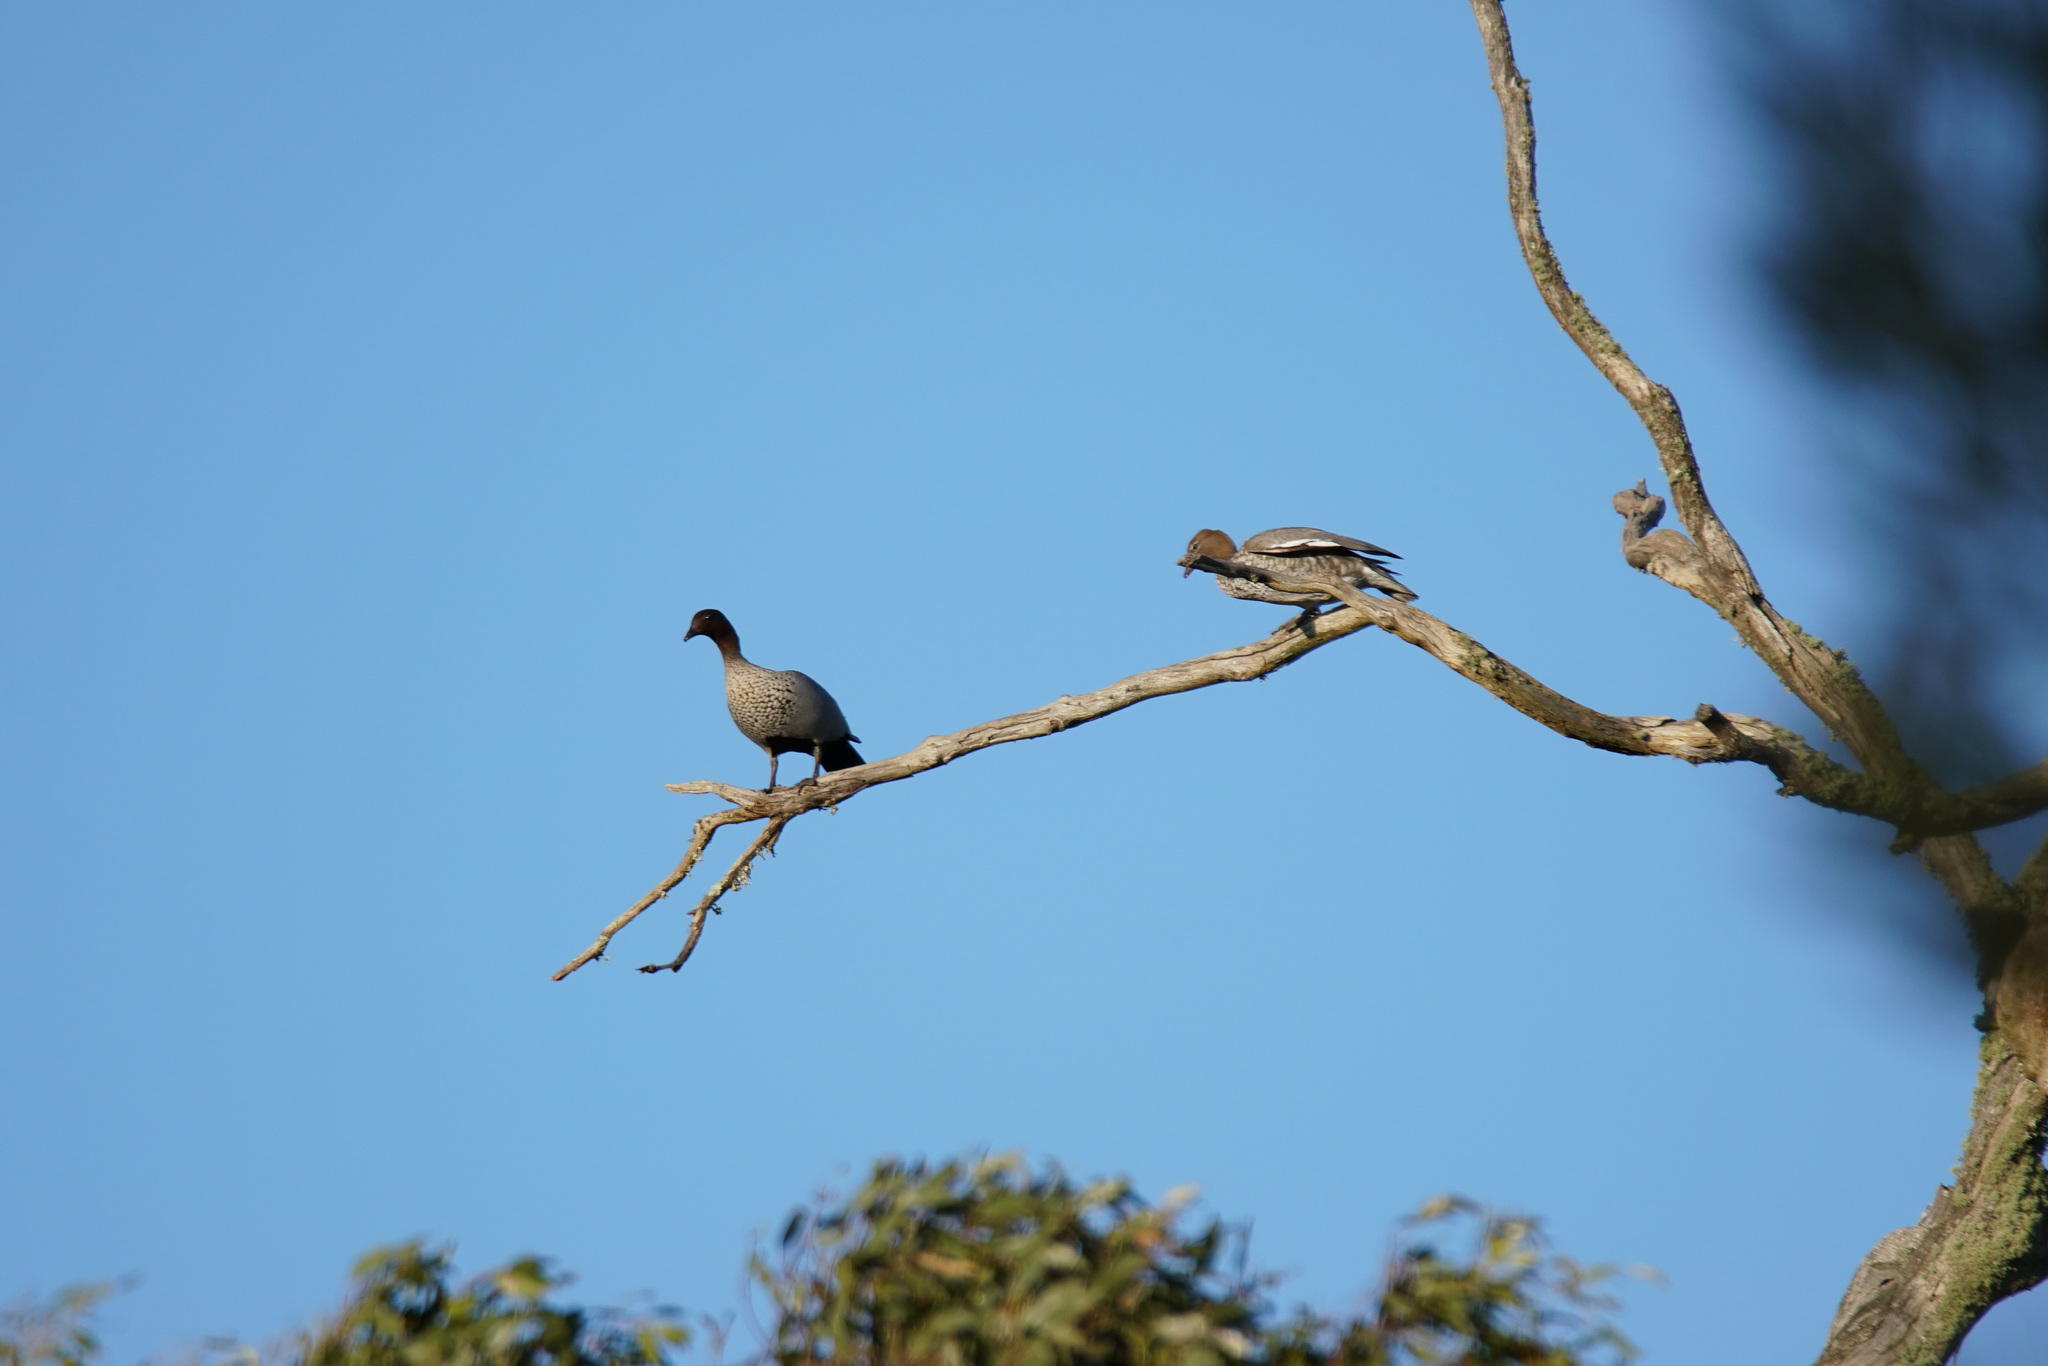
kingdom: Animalia
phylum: Chordata
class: Aves
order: Anseriformes
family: Anatidae
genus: Chenonetta
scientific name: Chenonetta jubata
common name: Maned duck
